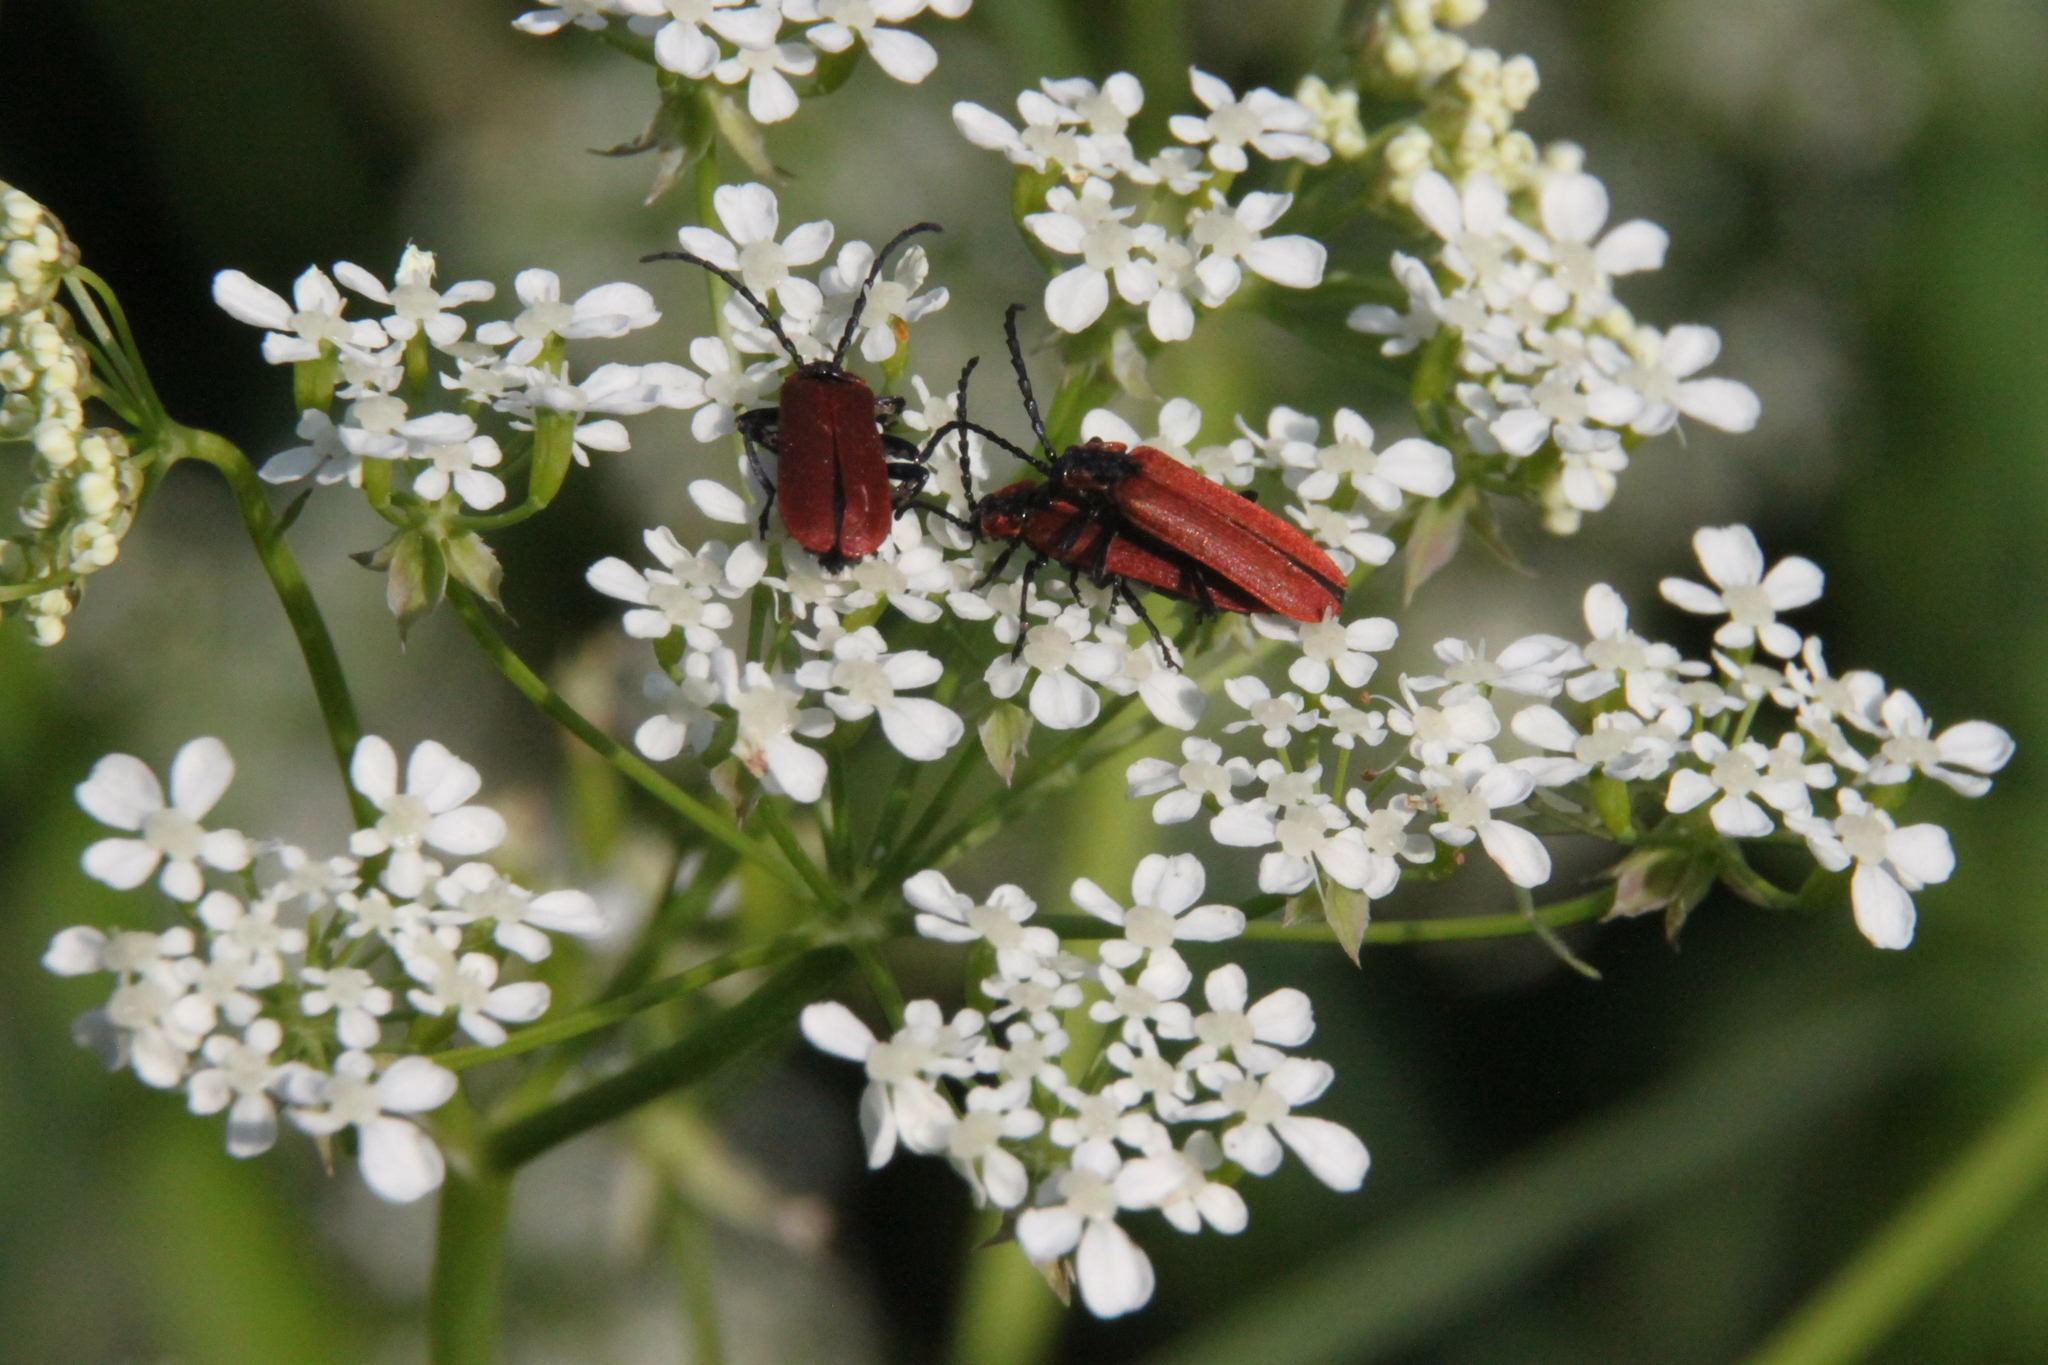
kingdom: Animalia
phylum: Arthropoda
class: Insecta
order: Coleoptera
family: Lycidae
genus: Lygistopterus
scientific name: Lygistopterus sanguineus
